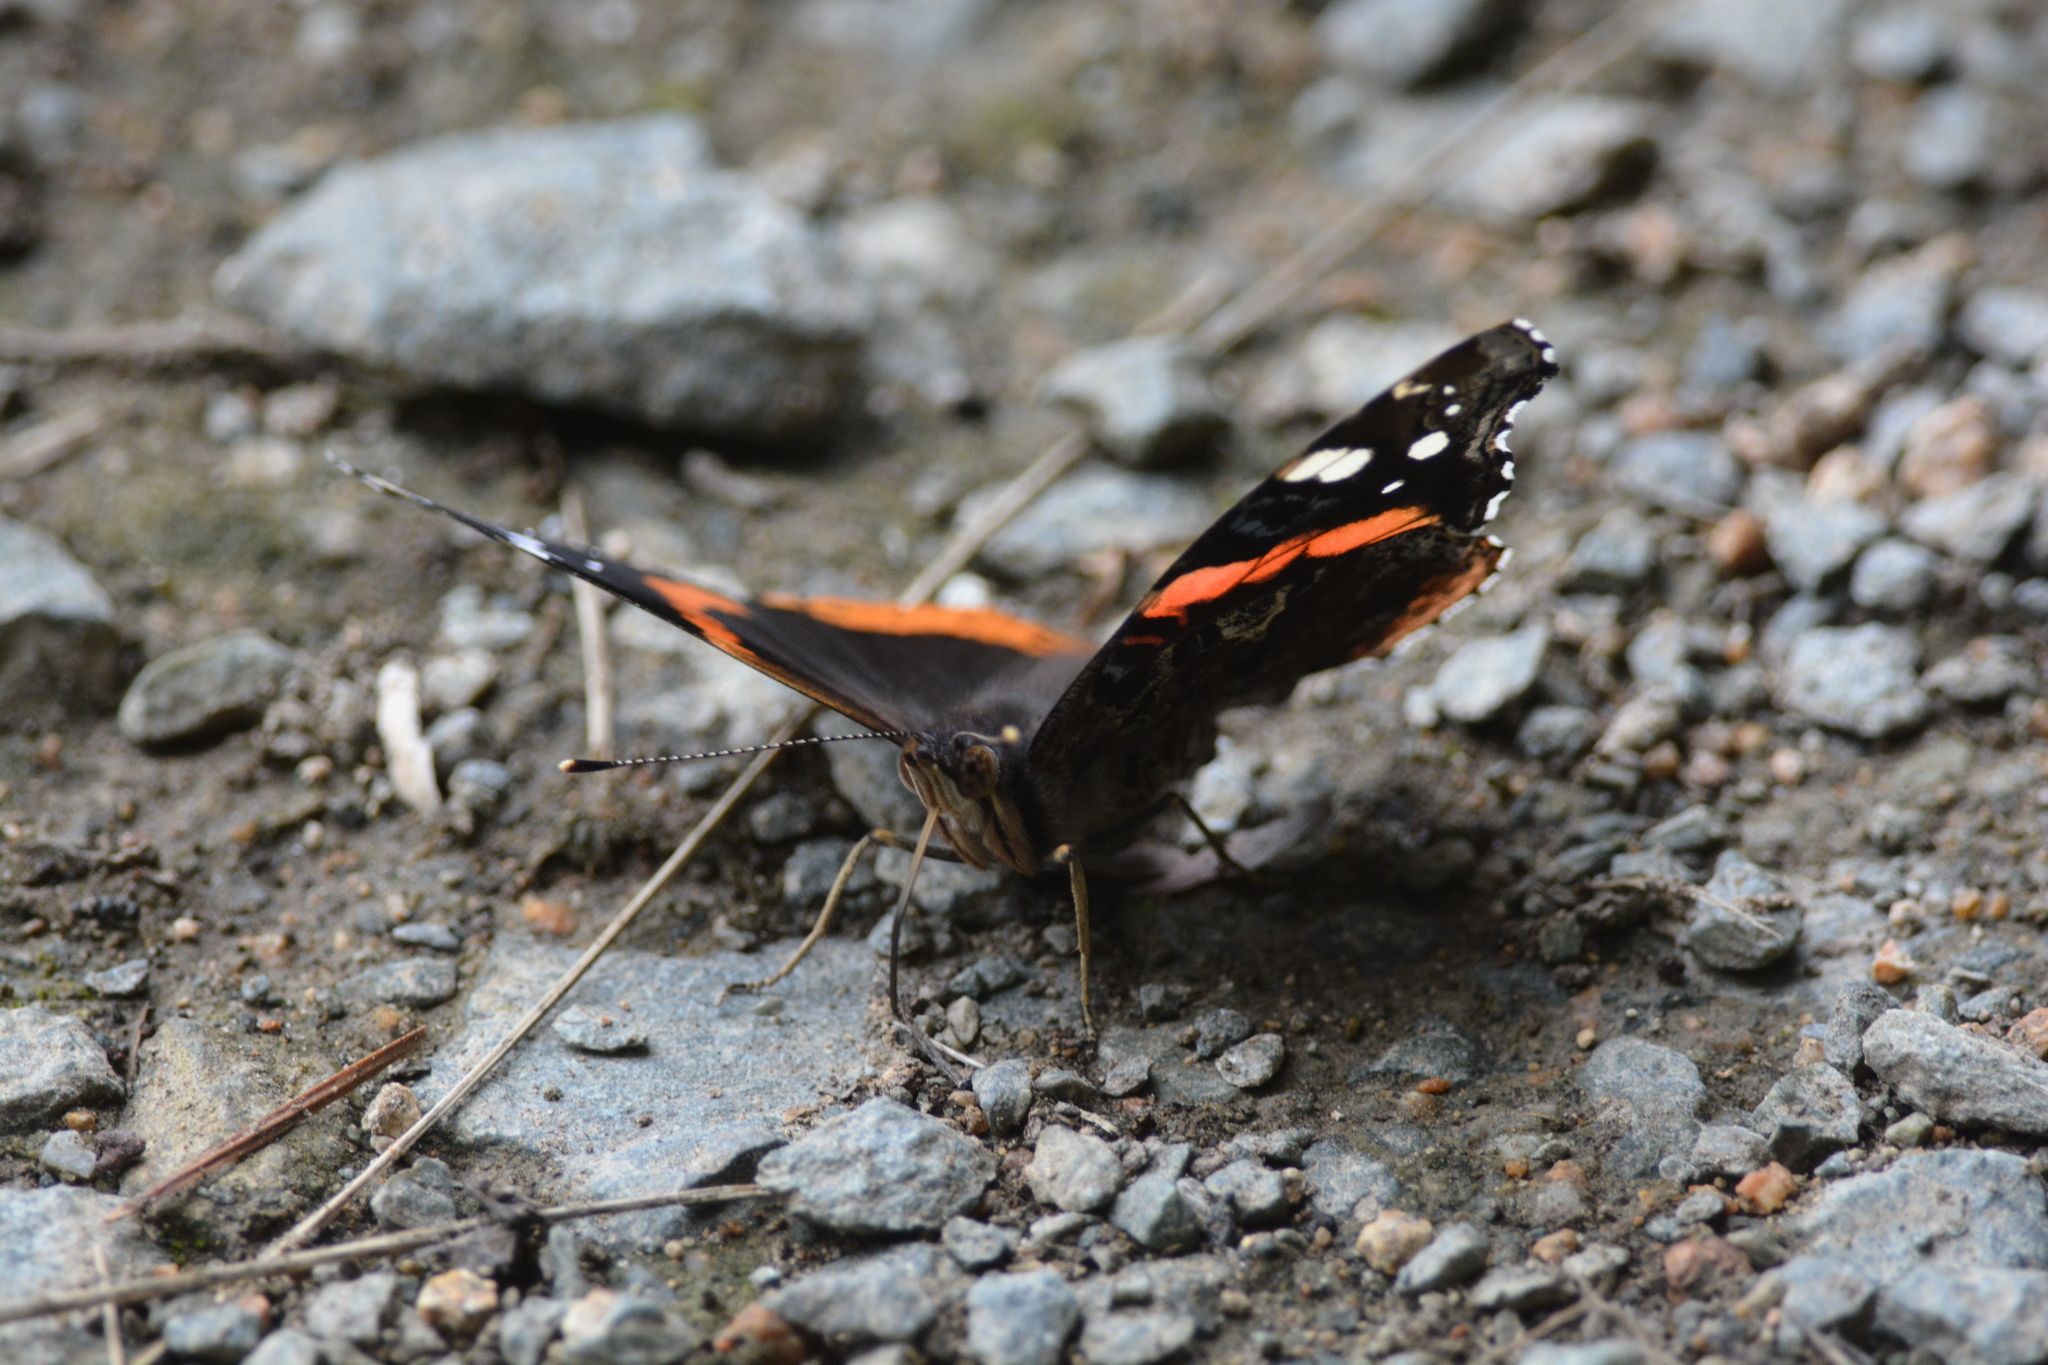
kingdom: Animalia
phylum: Arthropoda
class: Insecta
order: Lepidoptera
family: Nymphalidae
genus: Vanessa
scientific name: Vanessa atalanta
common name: Red admiral
